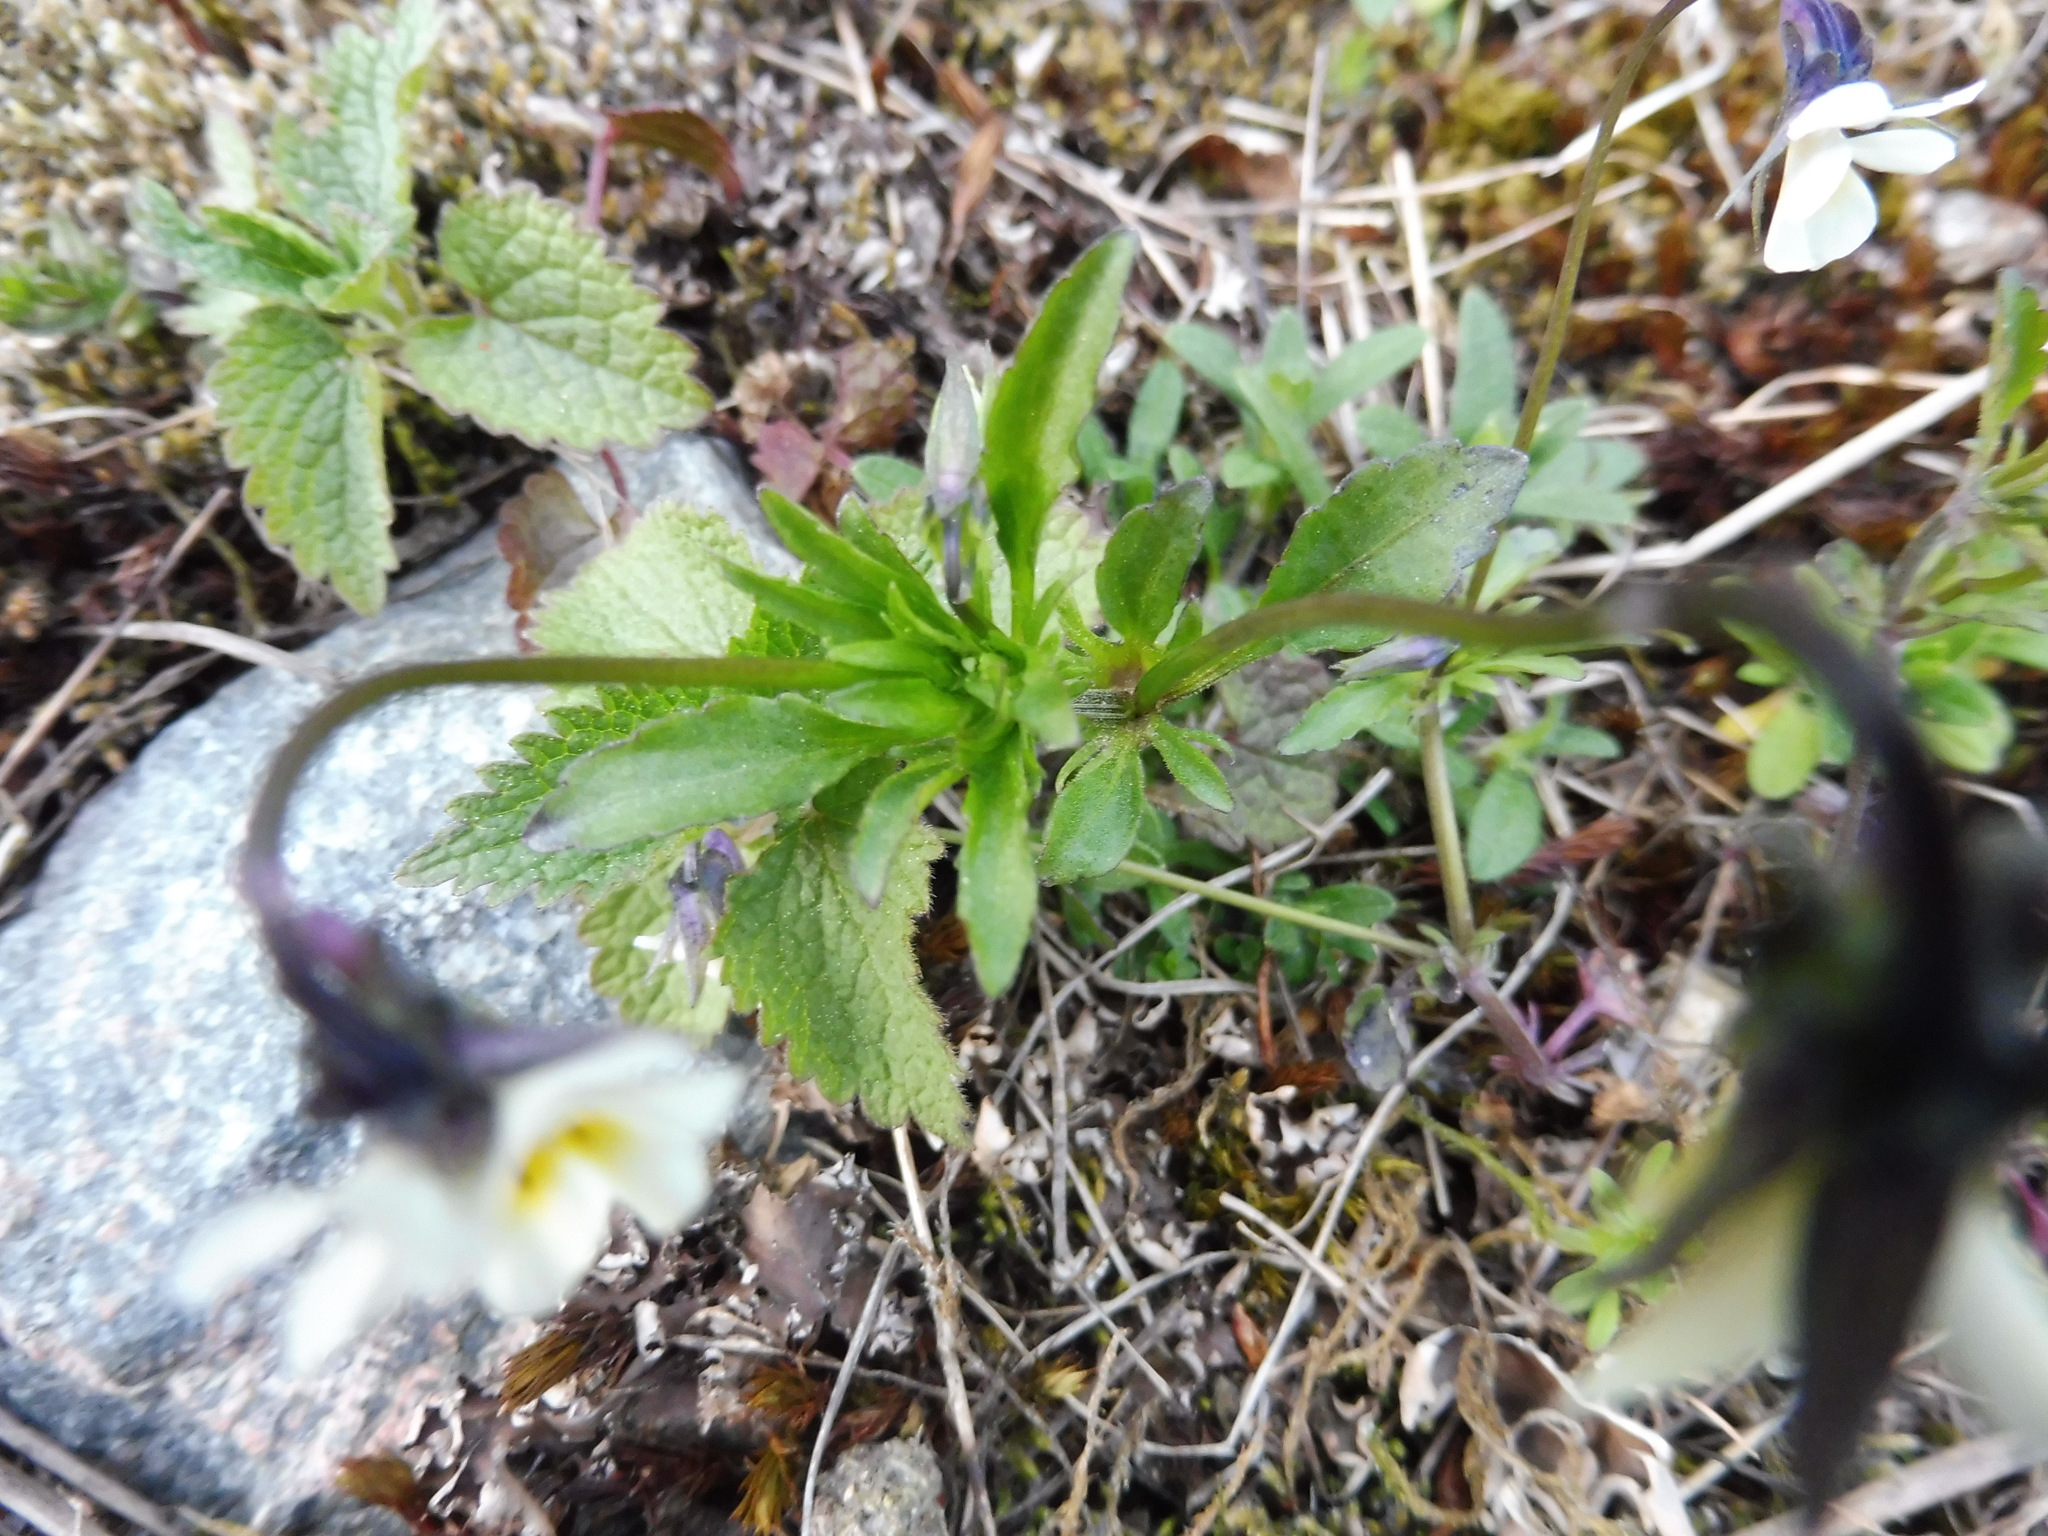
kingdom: Plantae
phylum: Tracheophyta
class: Magnoliopsida
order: Malpighiales
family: Violaceae
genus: Viola
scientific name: Viola arvensis
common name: Field pansy
